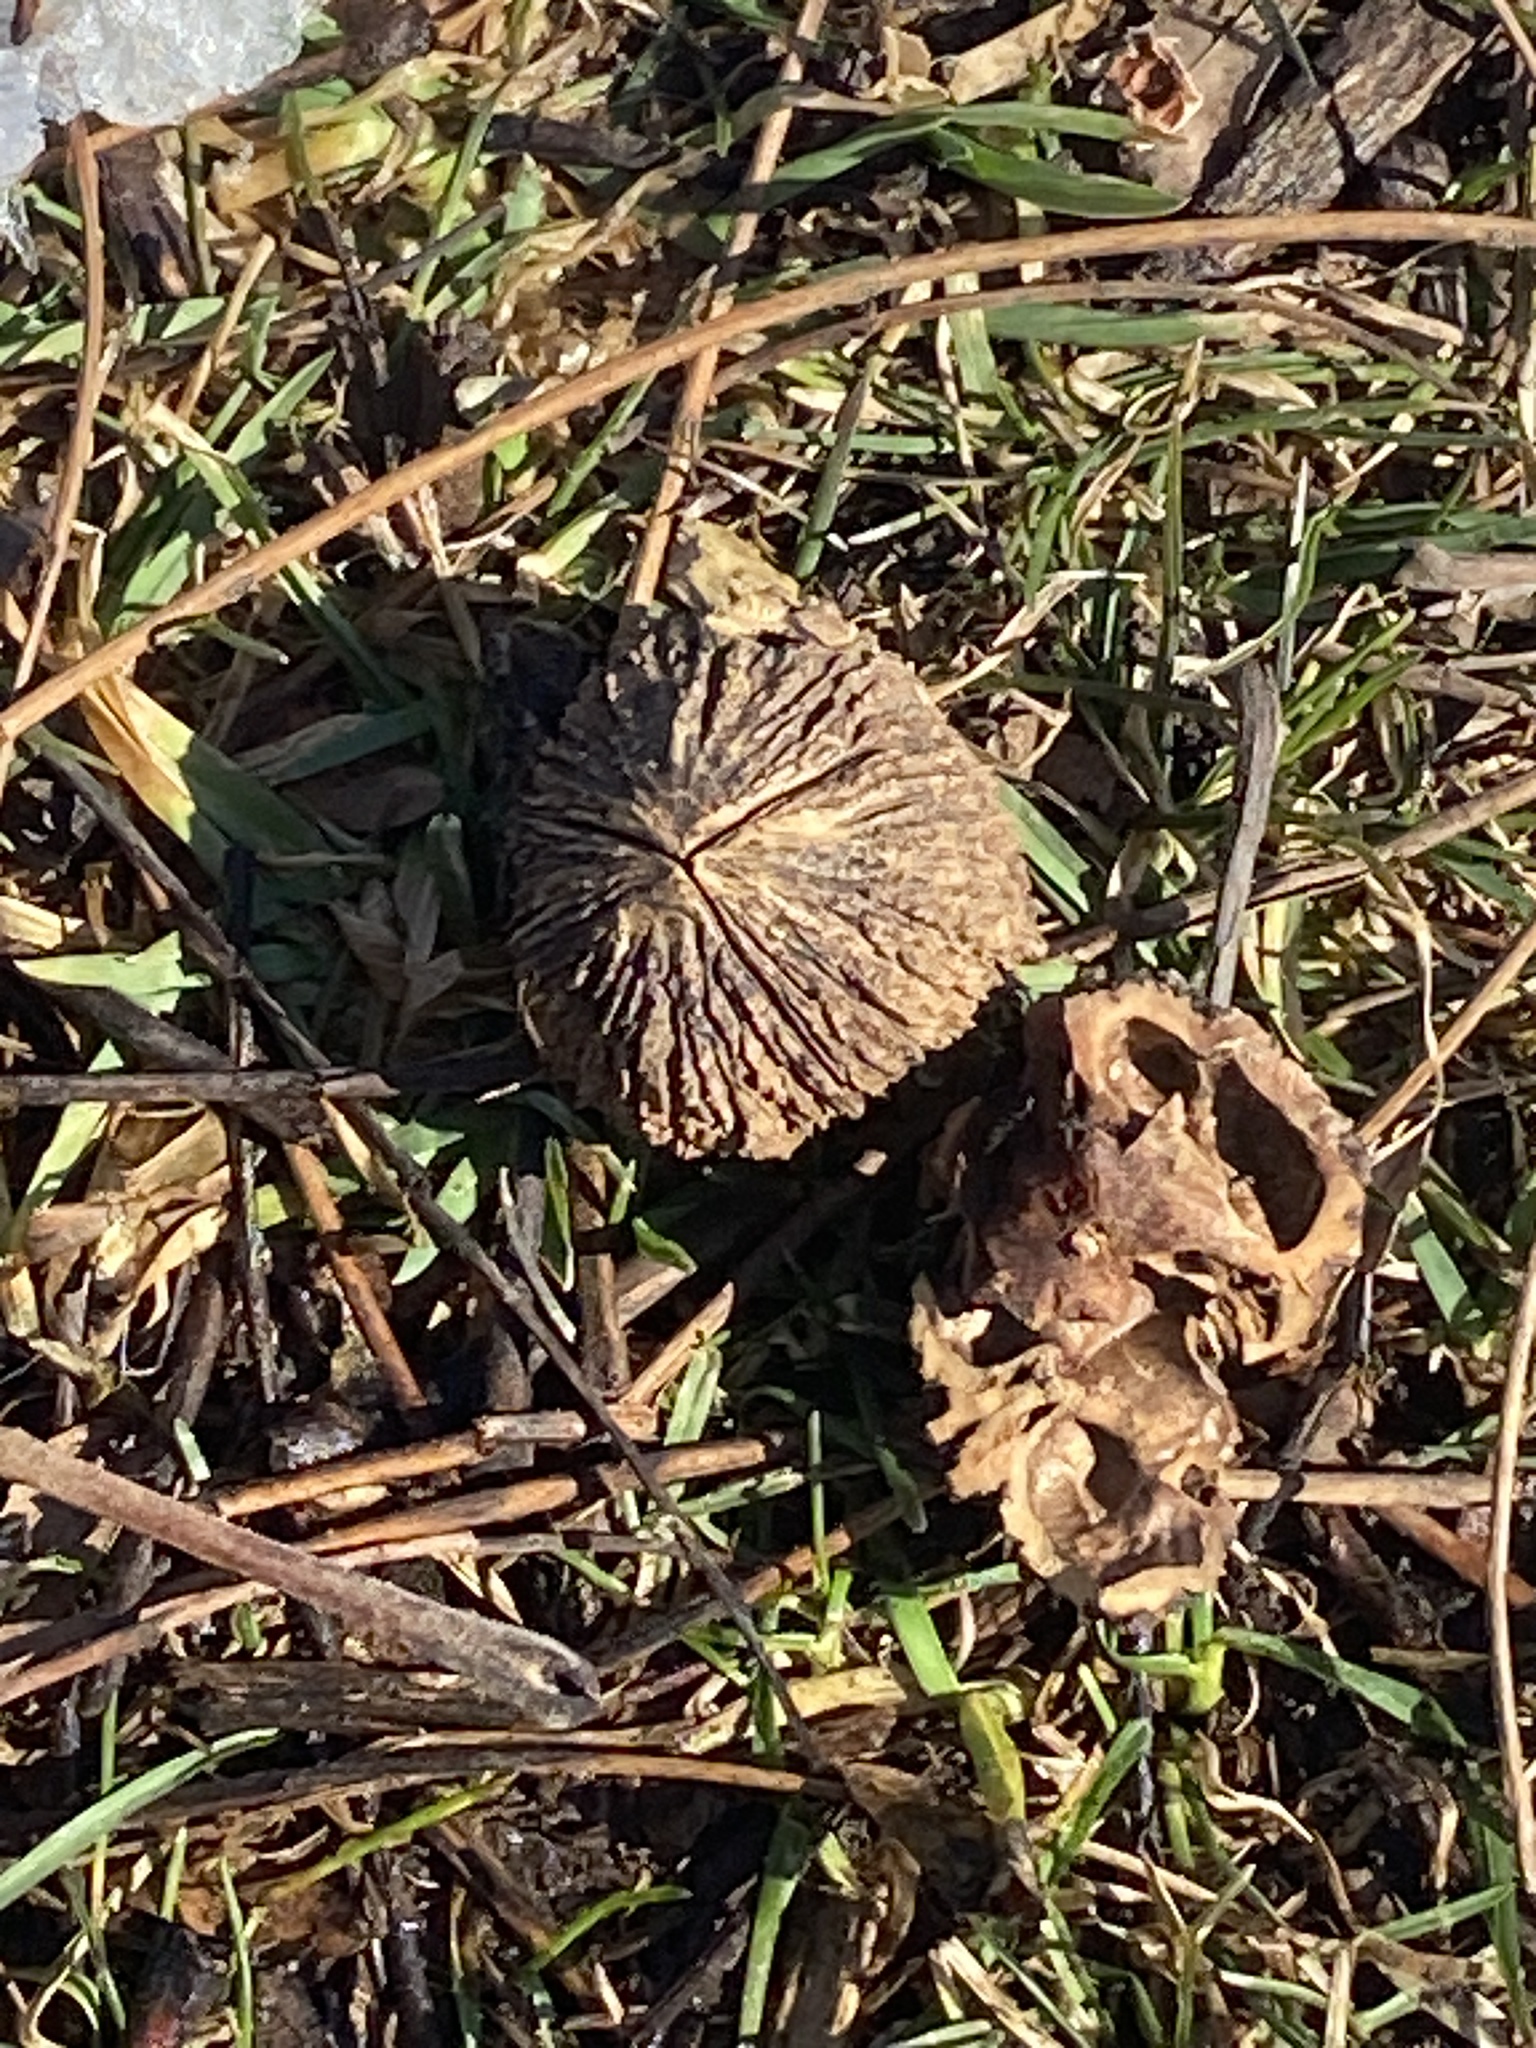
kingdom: Plantae
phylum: Tracheophyta
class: Magnoliopsida
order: Fagales
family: Juglandaceae
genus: Juglans
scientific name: Juglans nigra
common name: Black walnut
